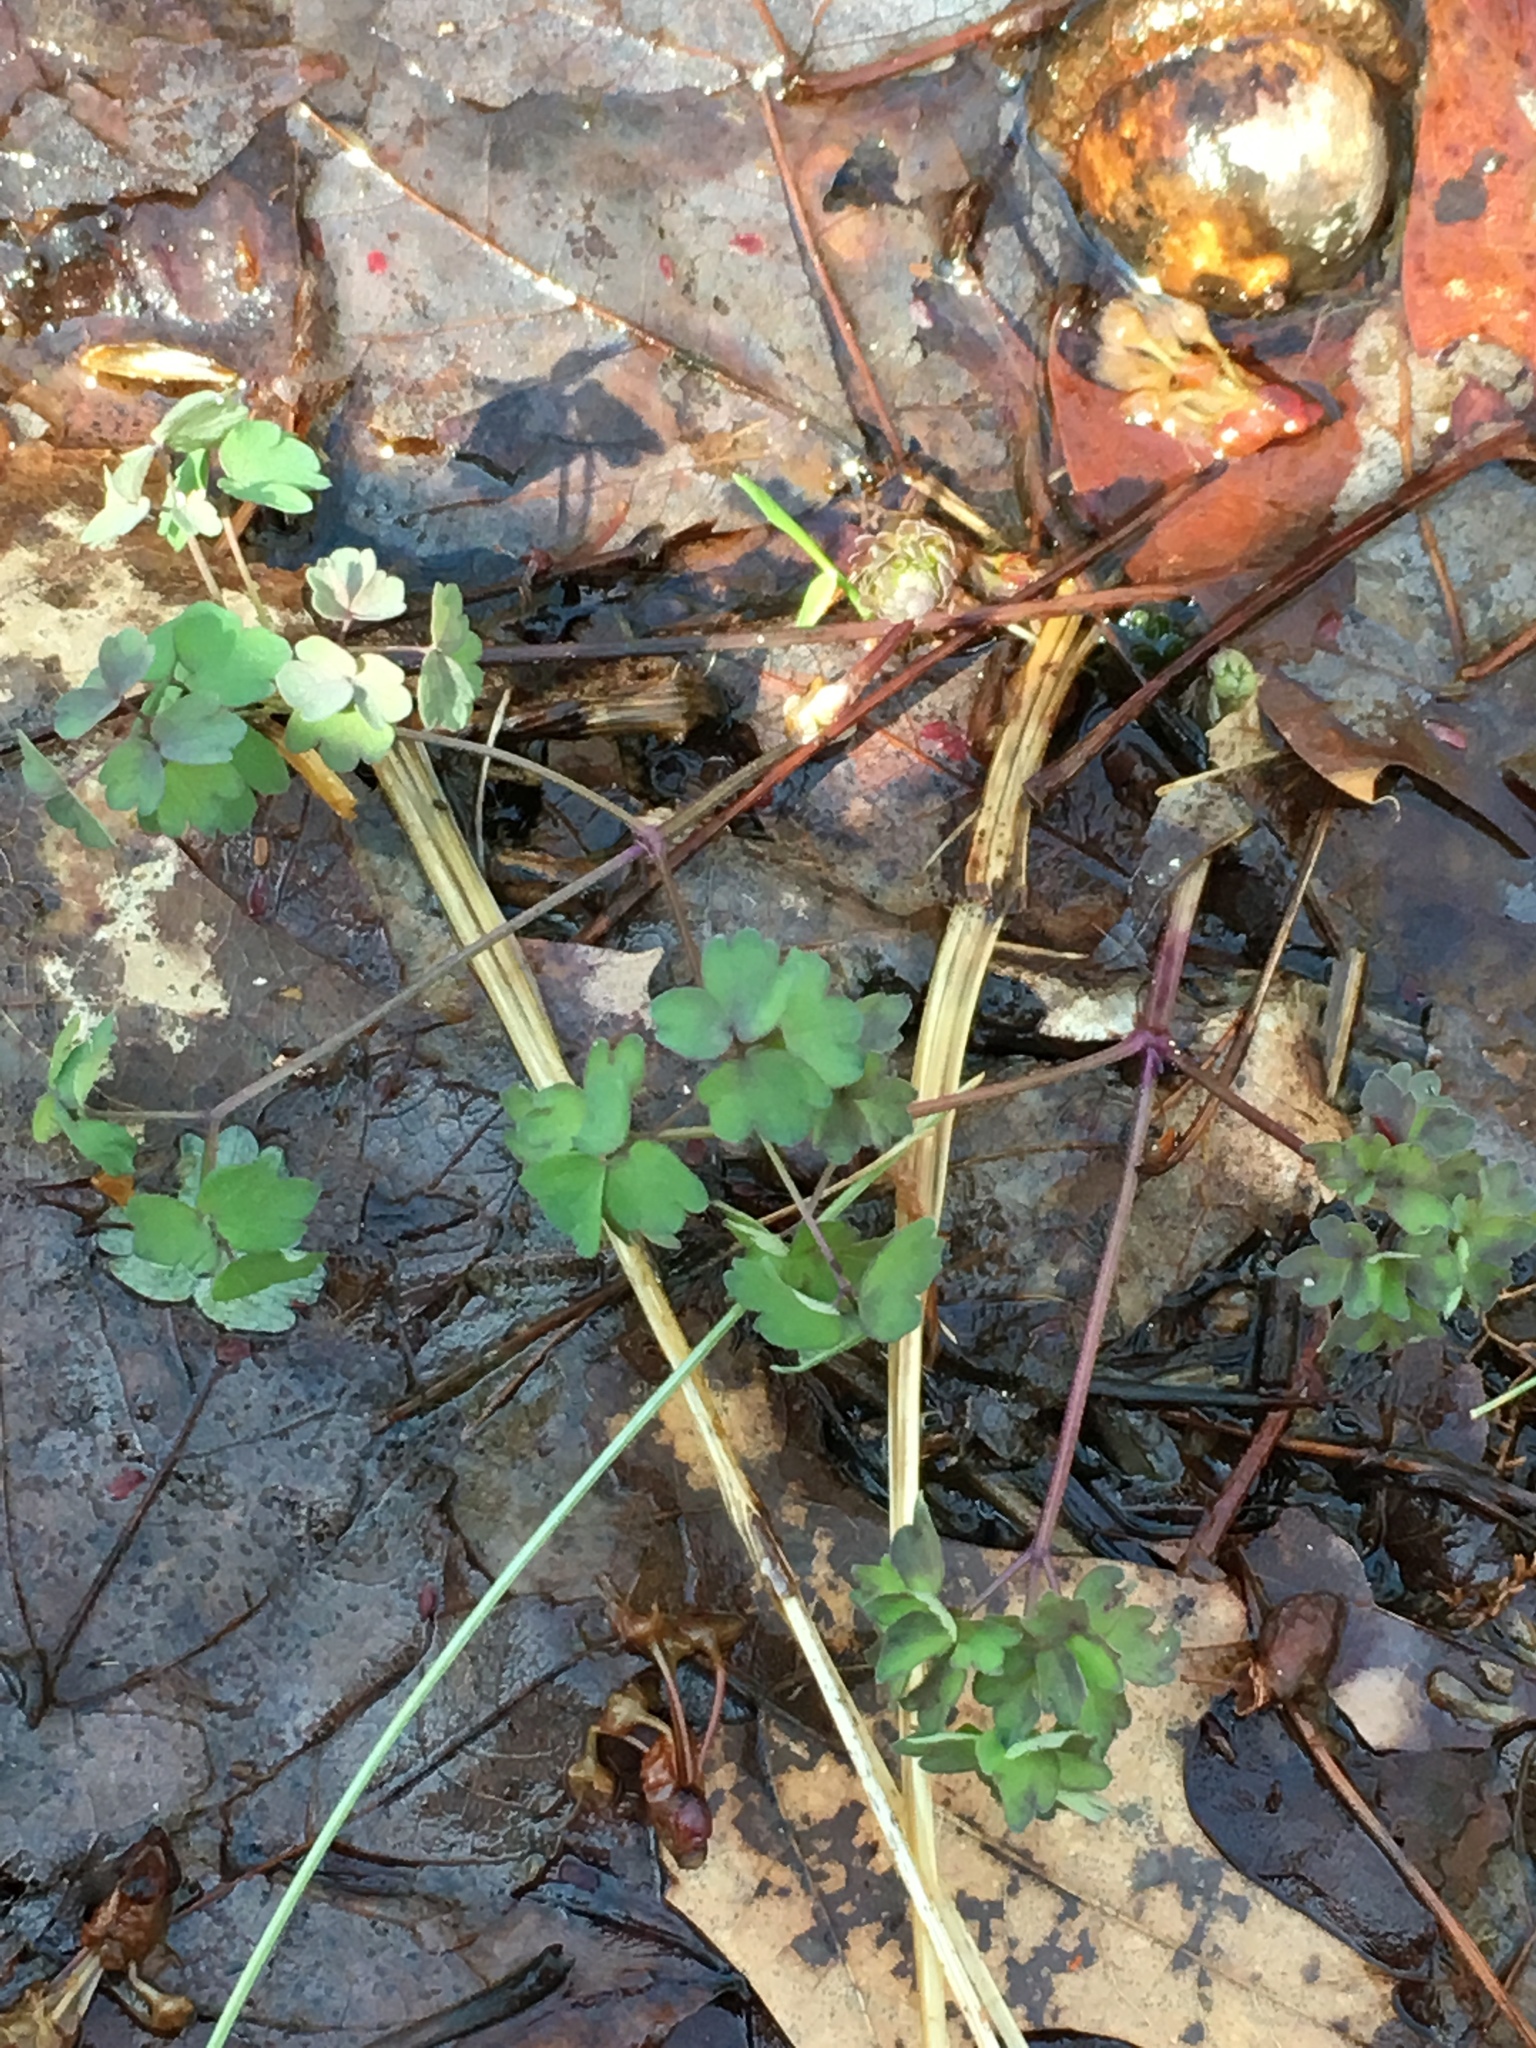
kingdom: Plantae
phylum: Tracheophyta
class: Magnoliopsida
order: Ranunculales
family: Ranunculaceae
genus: Thalictrum
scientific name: Thalictrum pubescens
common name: King-of-the-meadow
